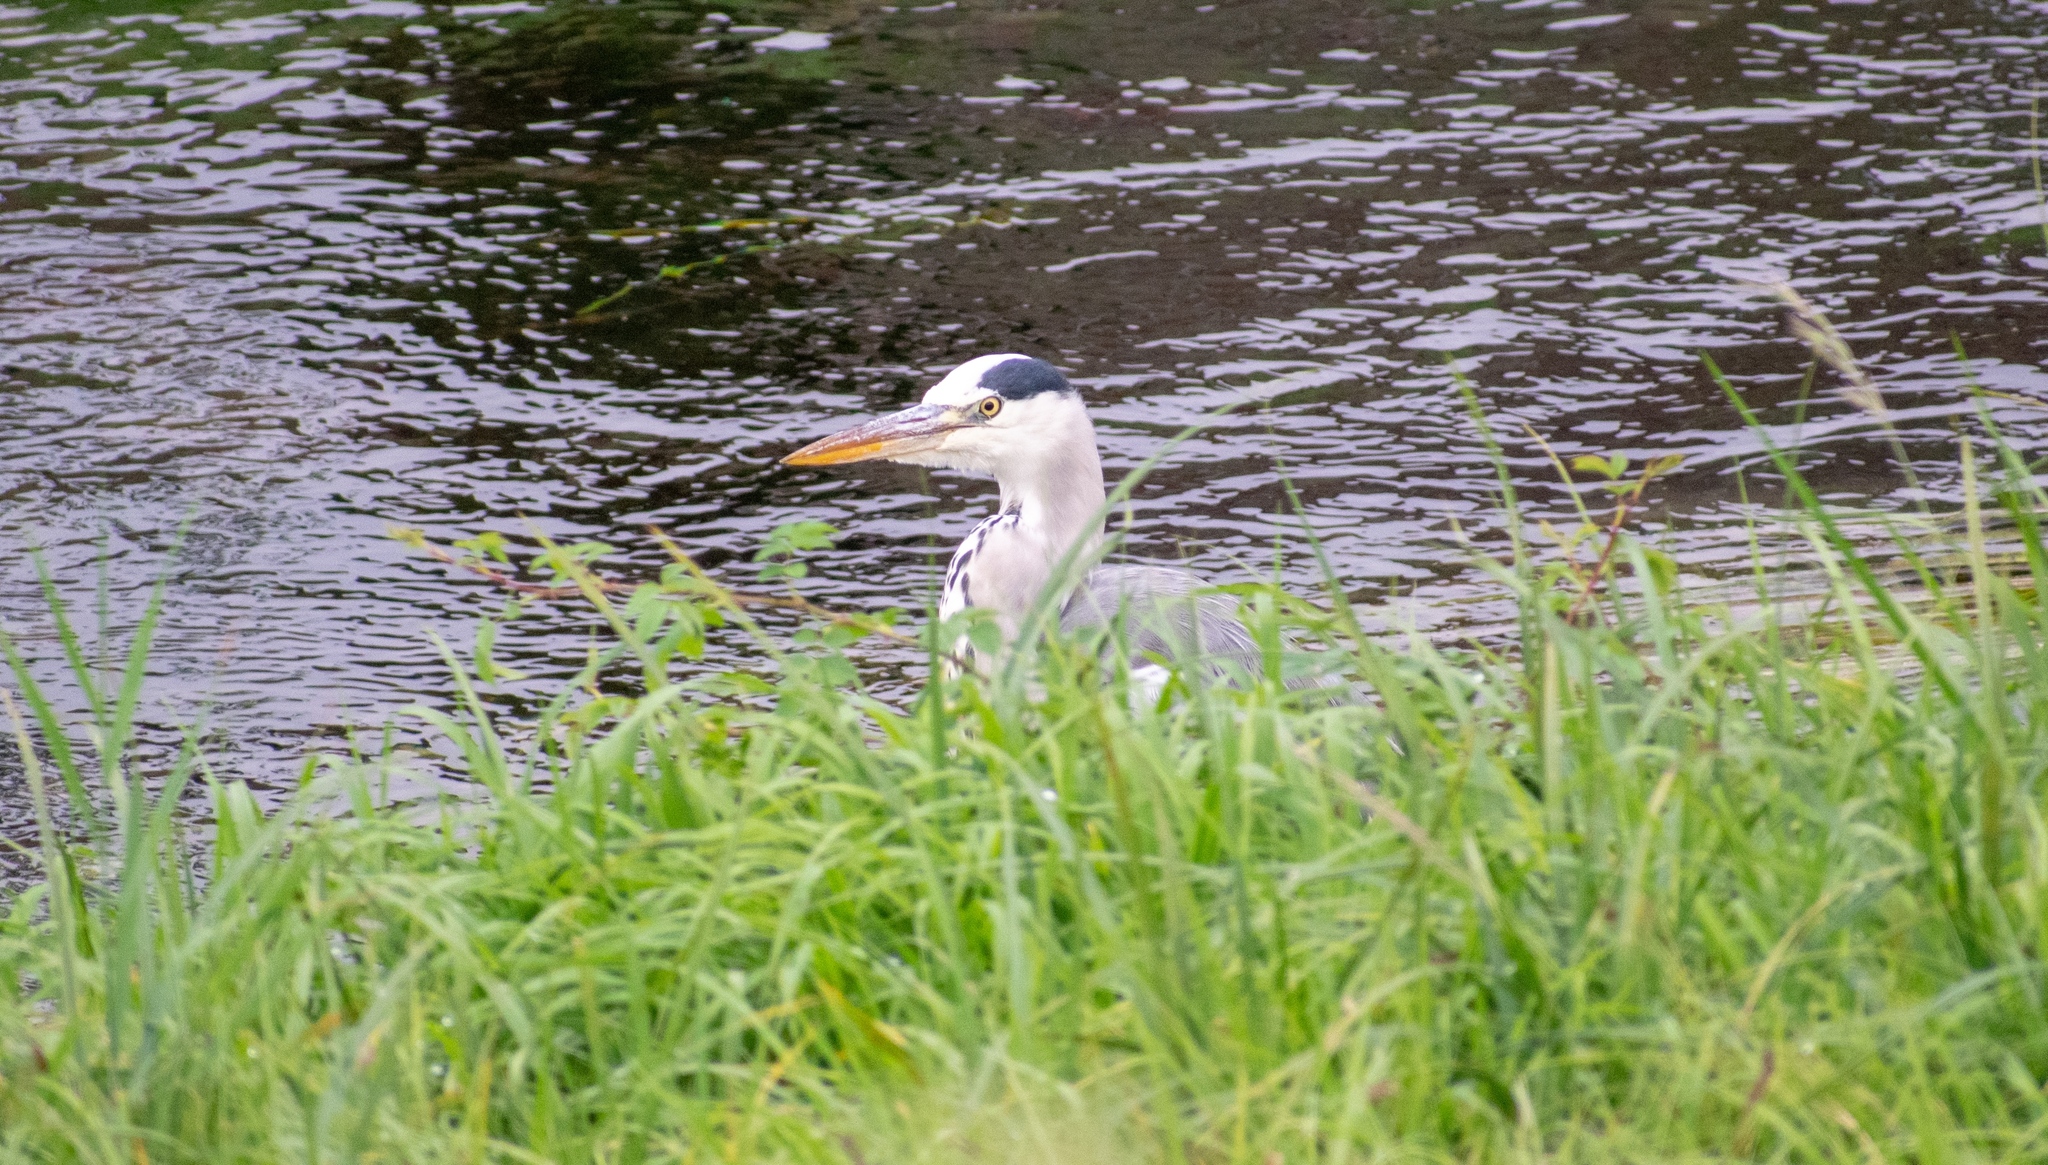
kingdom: Animalia
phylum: Chordata
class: Aves
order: Pelecaniformes
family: Ardeidae
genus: Ardea
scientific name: Ardea cinerea
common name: Grey heron
